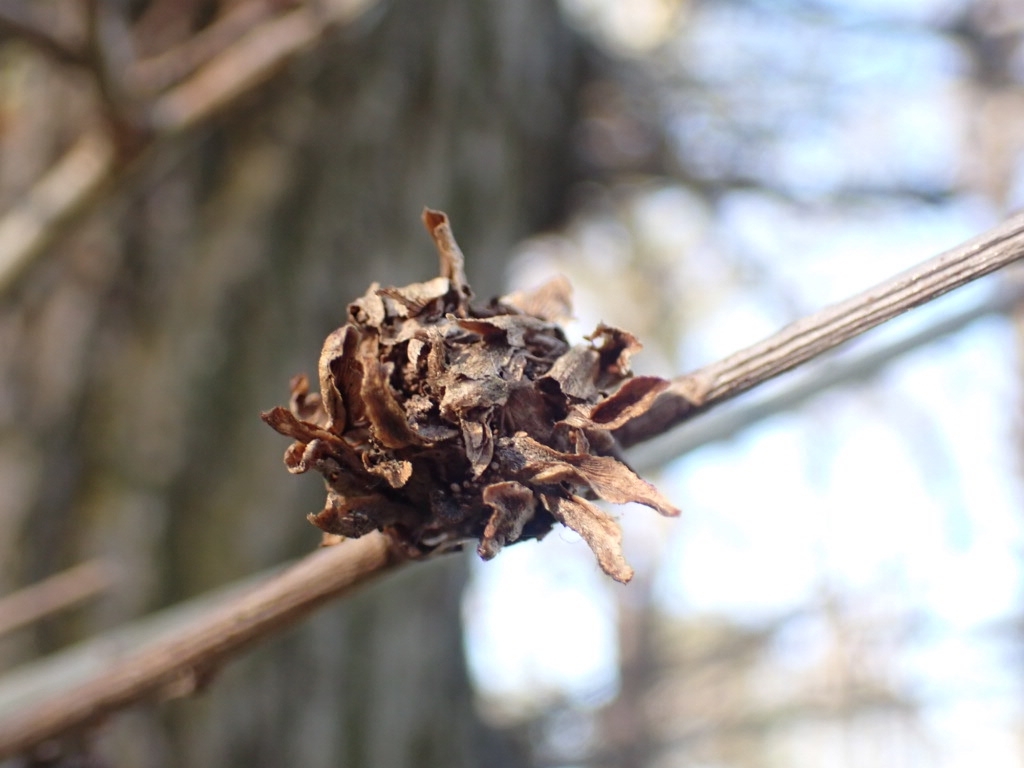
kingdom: Animalia
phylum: Arthropoda
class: Insecta
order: Hymenoptera
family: Cynipidae
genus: Andricus
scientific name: Andricus foecundatrix
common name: Artichoke gall
